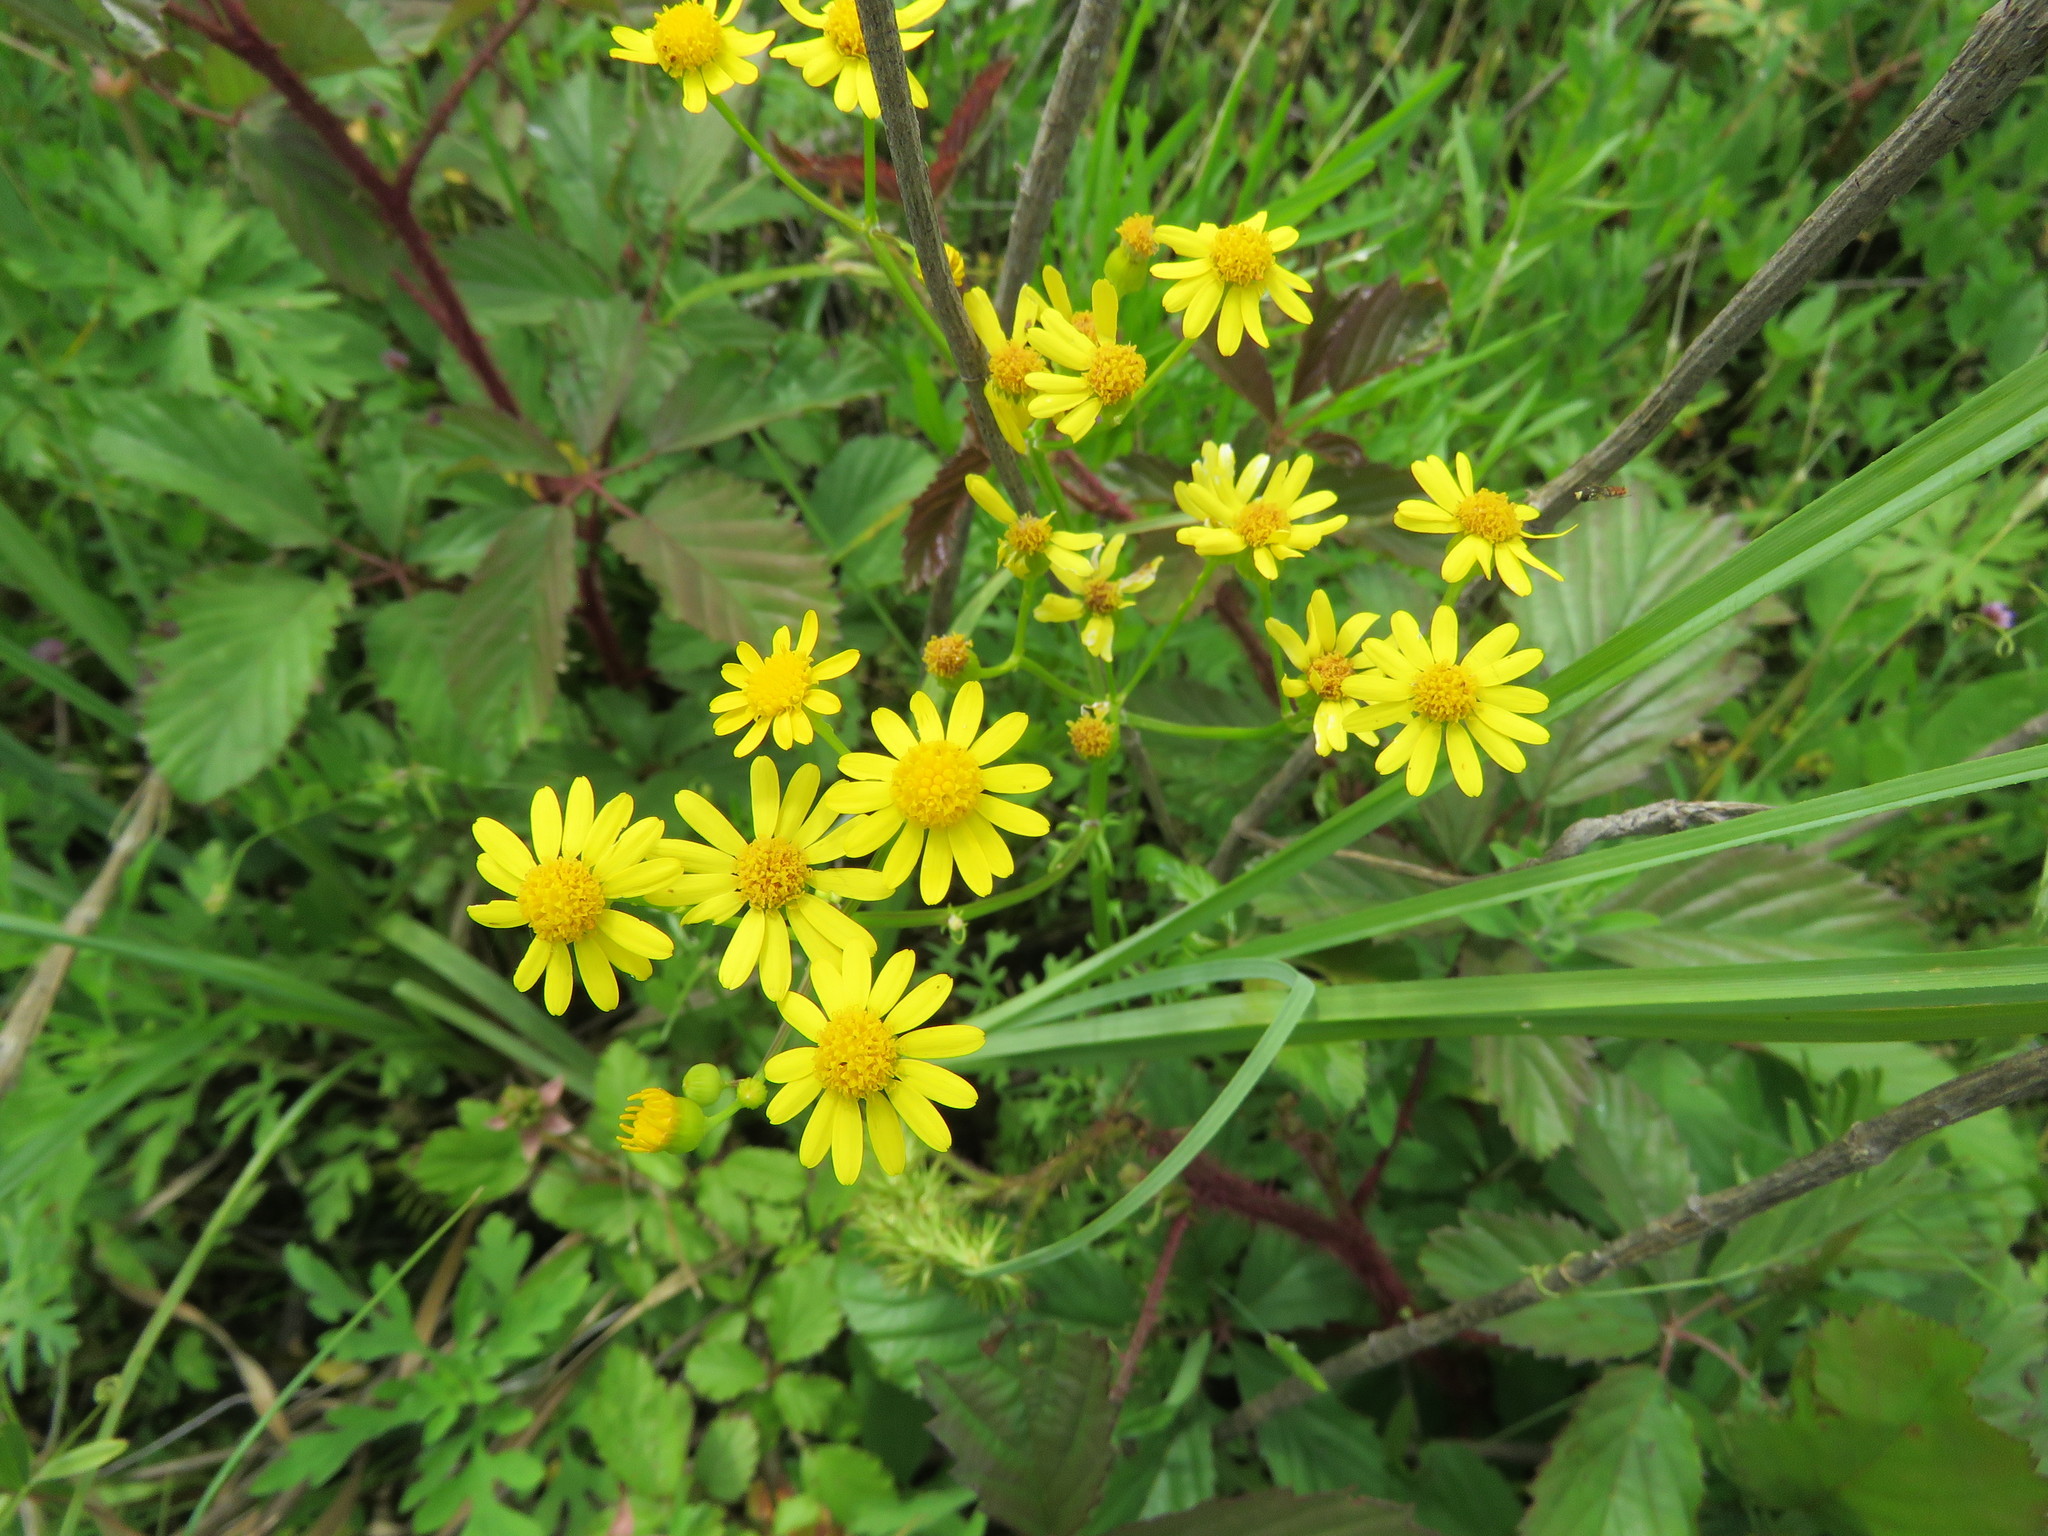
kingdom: Plantae
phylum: Tracheophyta
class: Magnoliopsida
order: Asterales
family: Asteraceae
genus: Packera
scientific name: Packera tampicana
